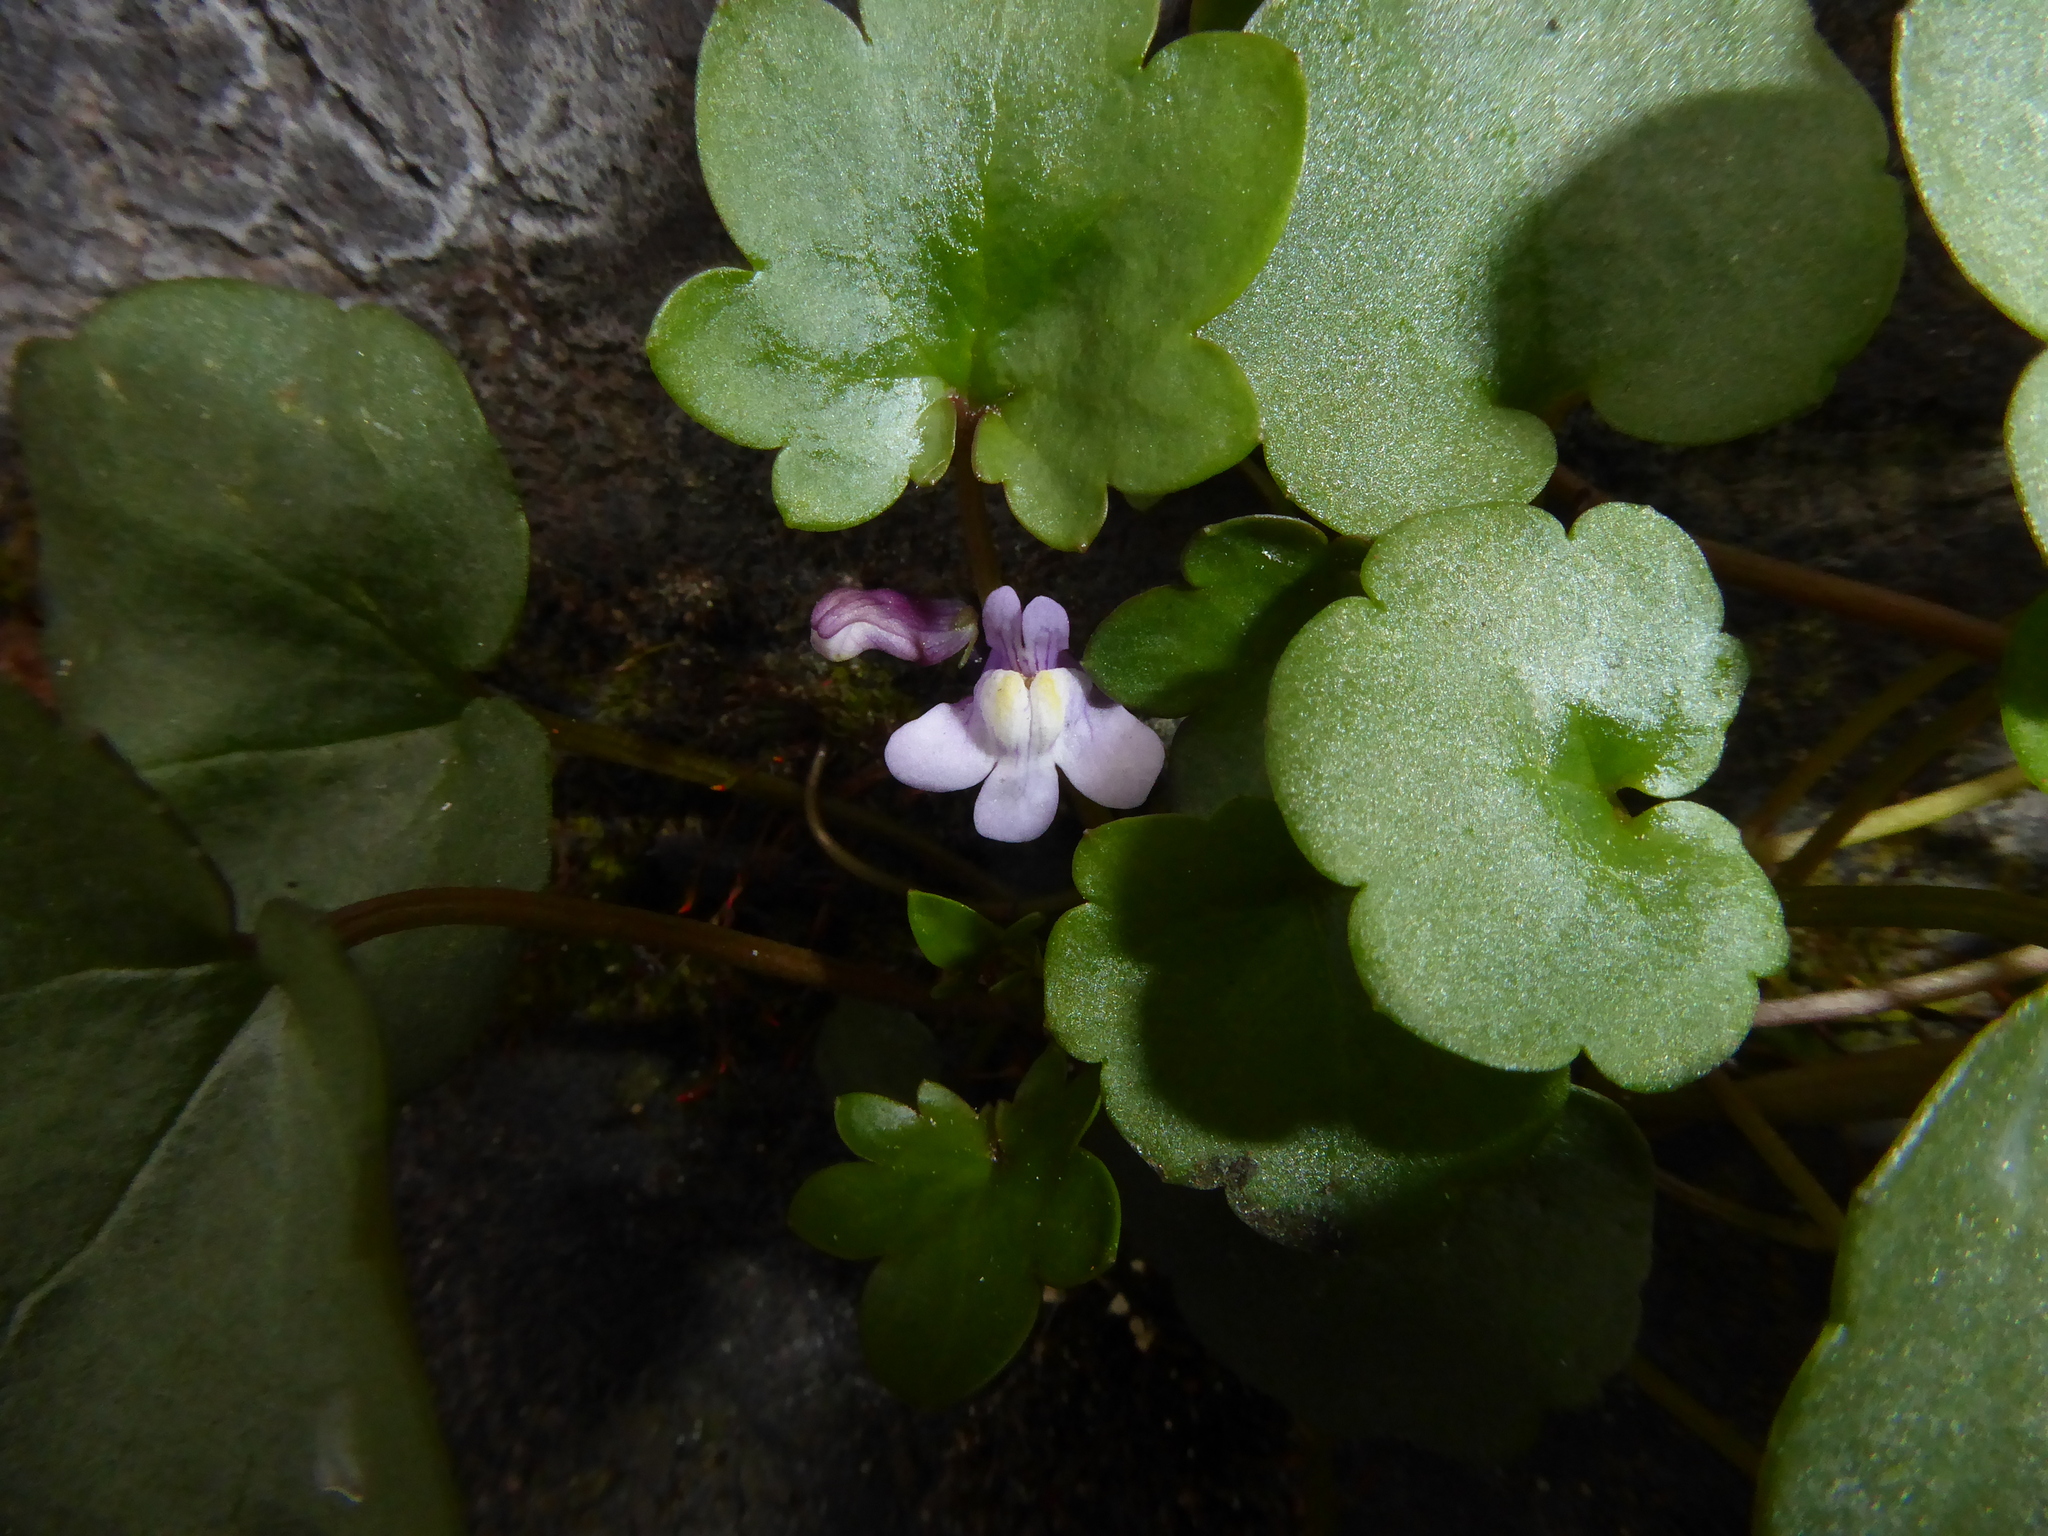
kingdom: Plantae
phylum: Tracheophyta
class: Magnoliopsida
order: Lamiales
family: Plantaginaceae
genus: Cymbalaria
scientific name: Cymbalaria muralis
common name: Ivy-leaved toadflax
